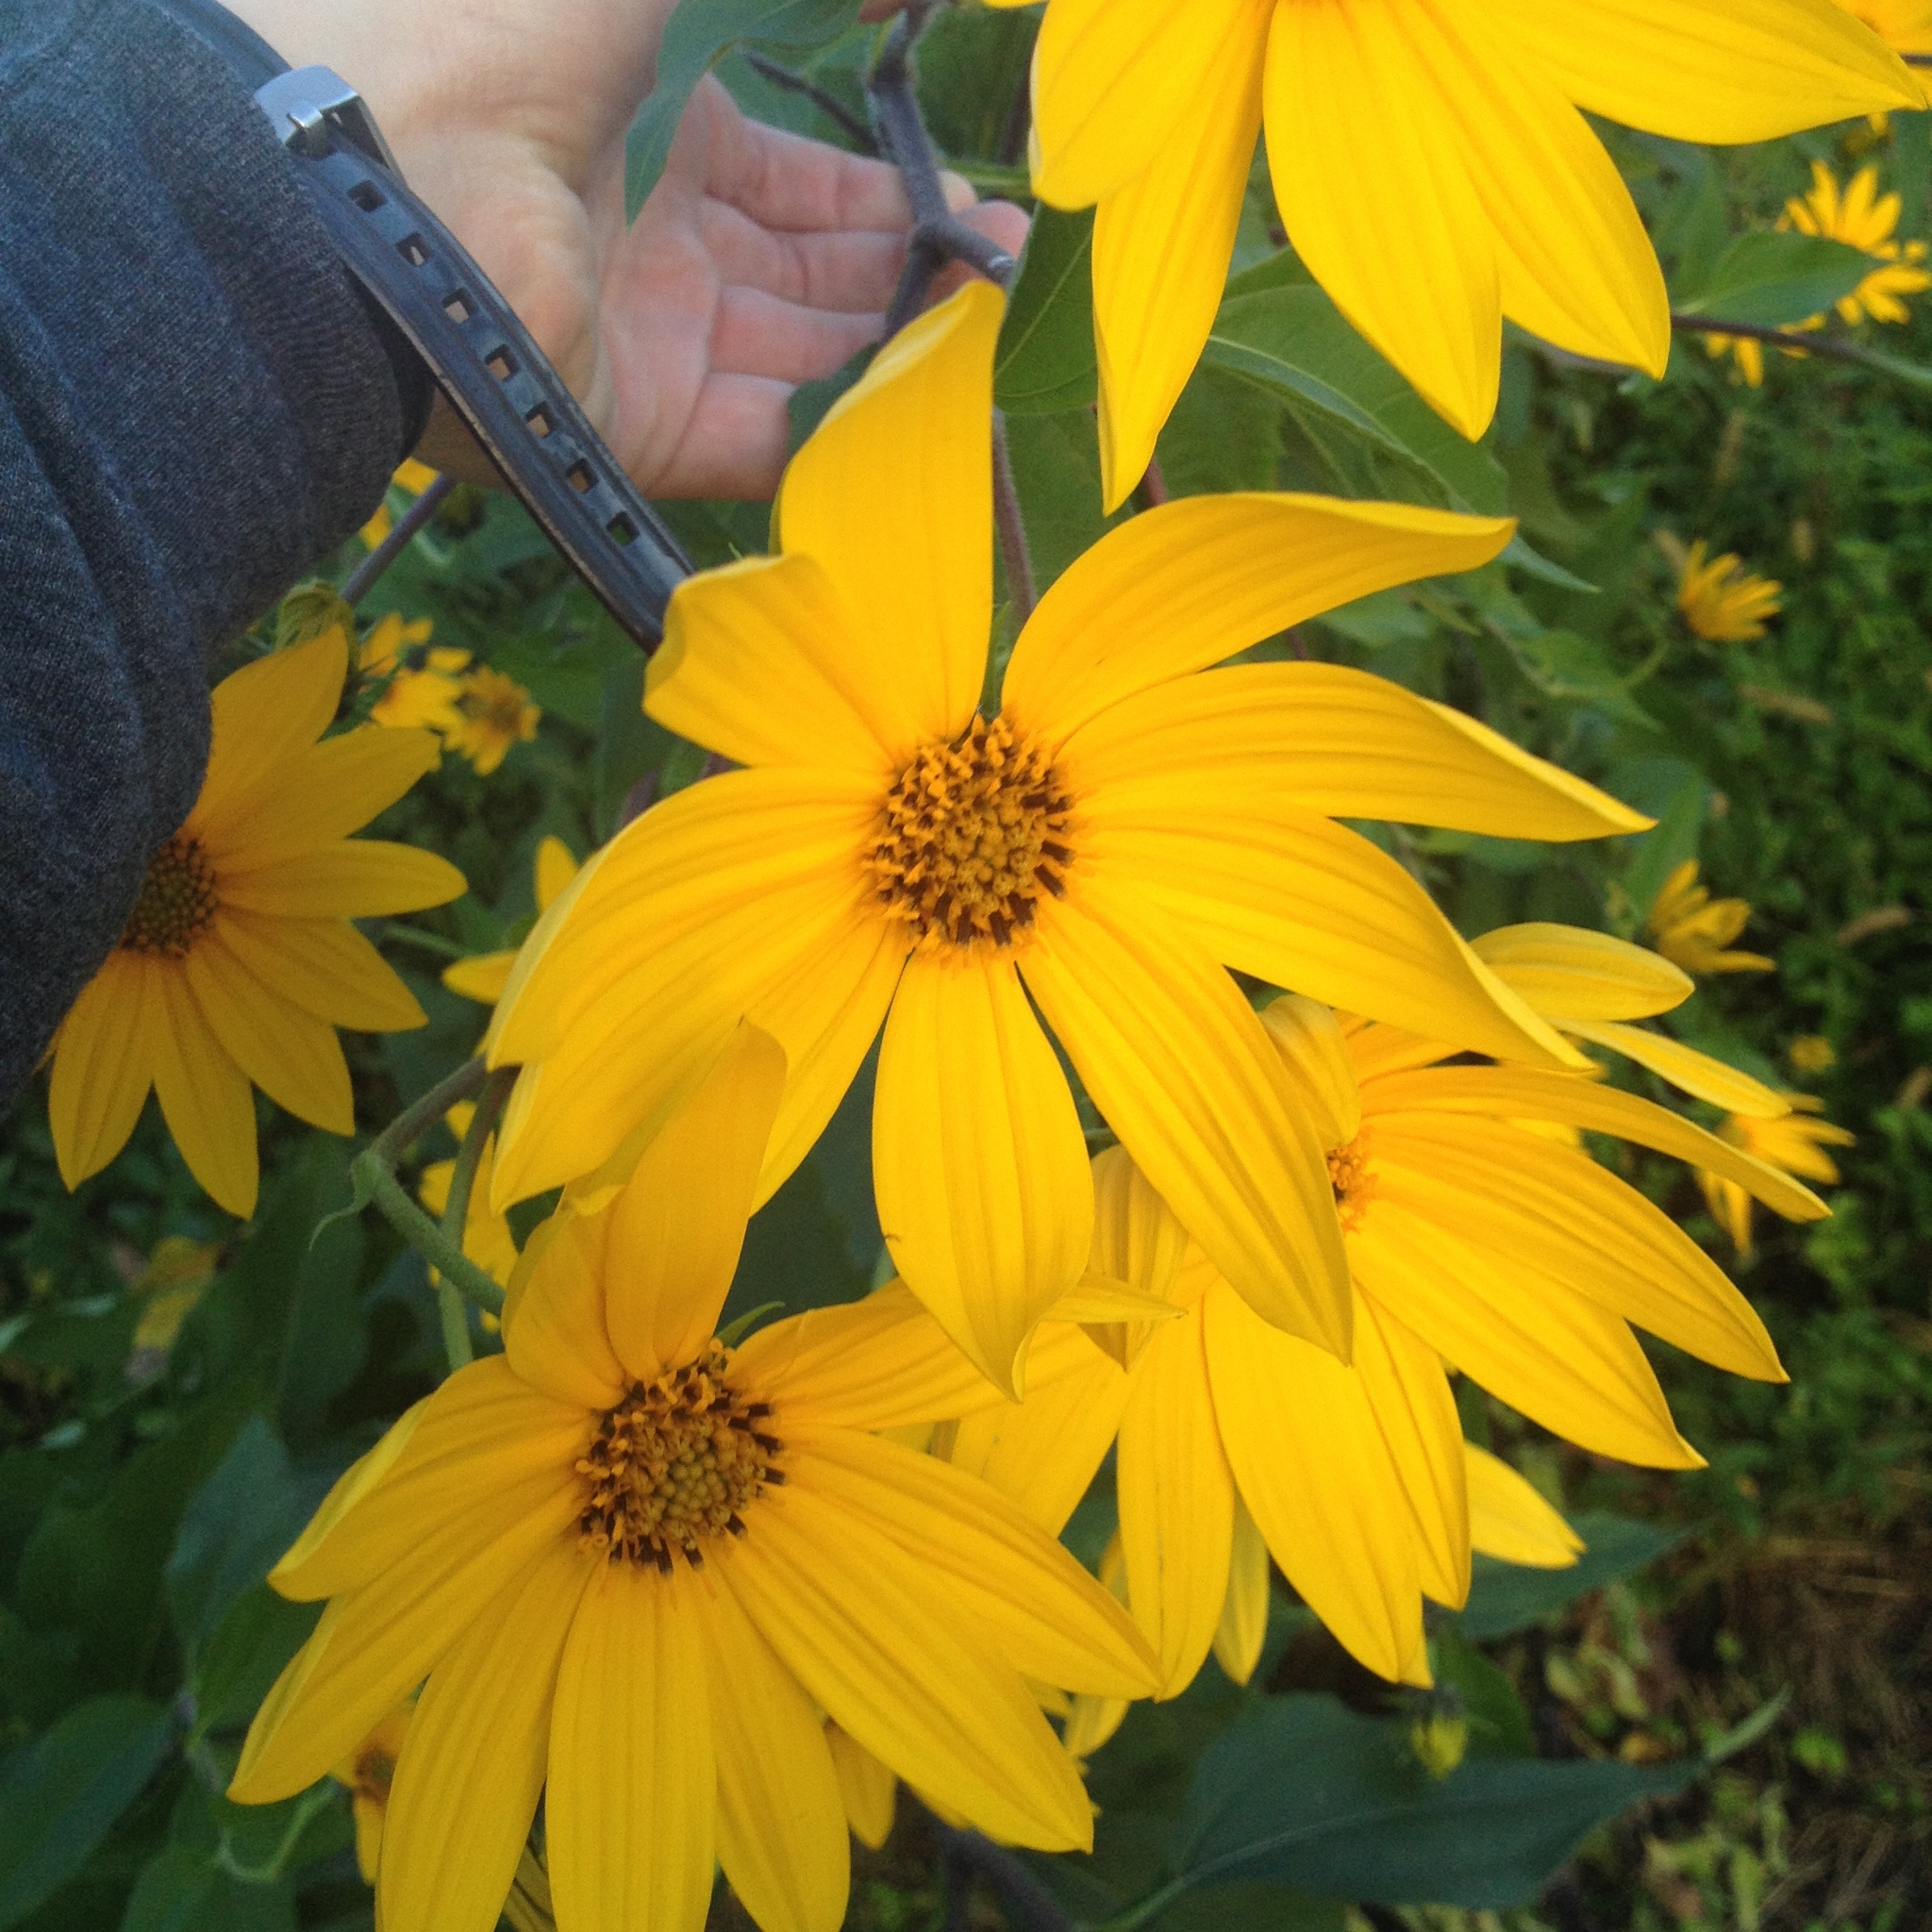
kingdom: Plantae
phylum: Tracheophyta
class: Magnoliopsida
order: Asterales
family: Asteraceae
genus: Helianthus
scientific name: Helianthus tuberosus
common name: Jerusalem artichoke
